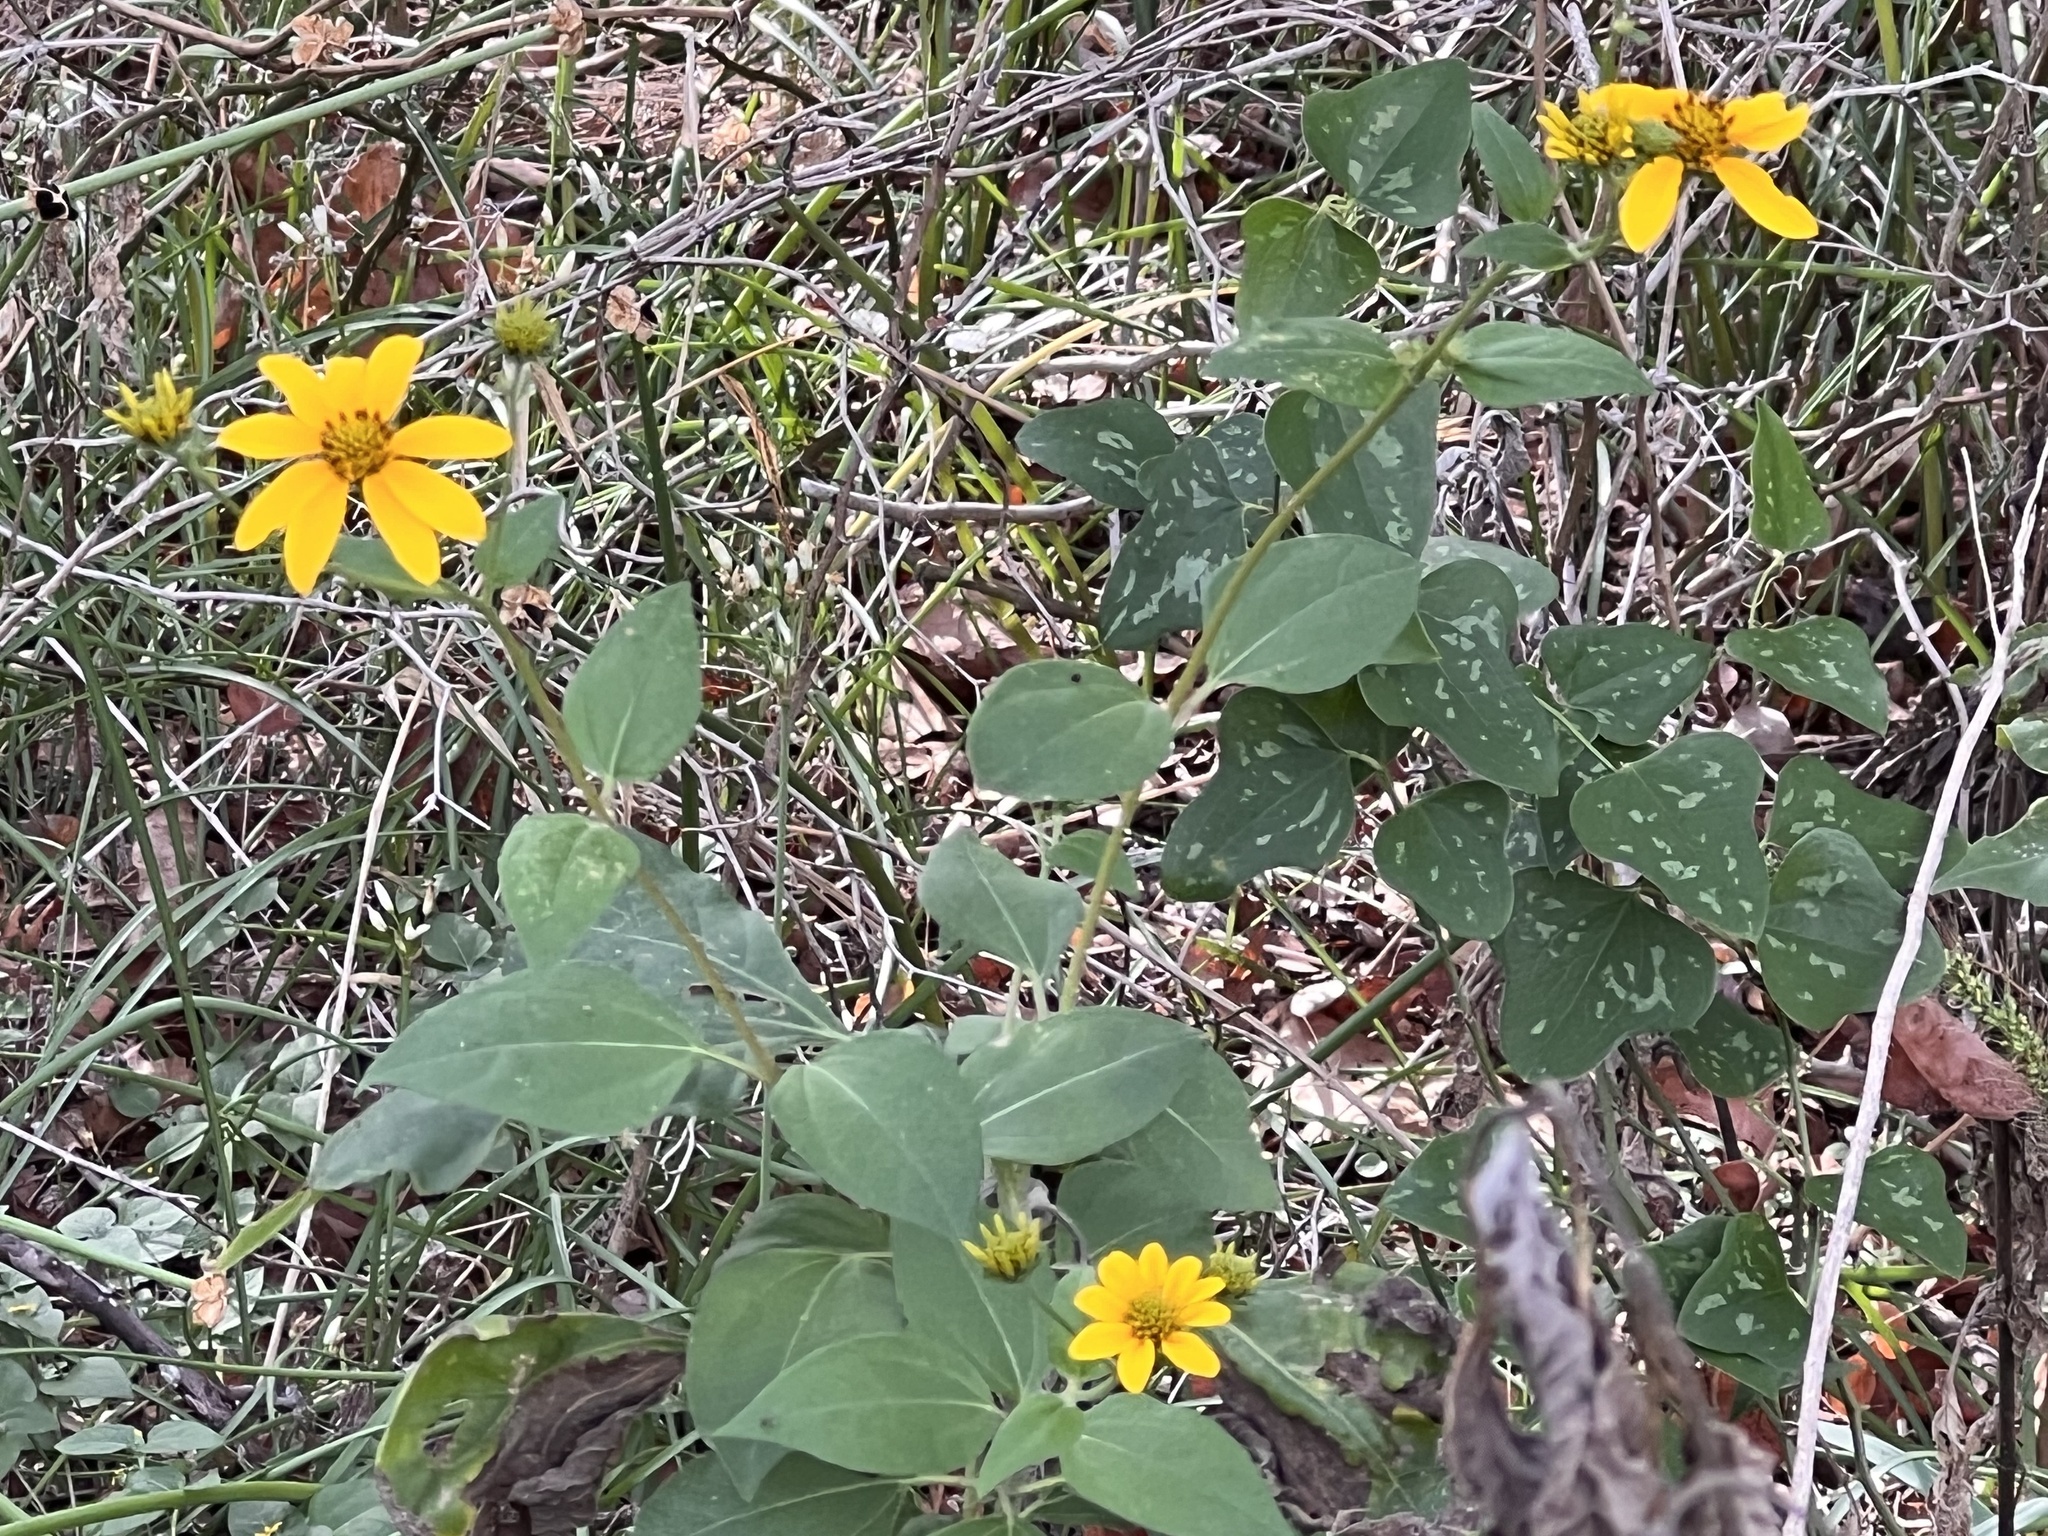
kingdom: Plantae
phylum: Tracheophyta
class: Magnoliopsida
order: Asterales
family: Asteraceae
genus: Viguiera
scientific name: Viguiera dentata
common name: Toothleaf
